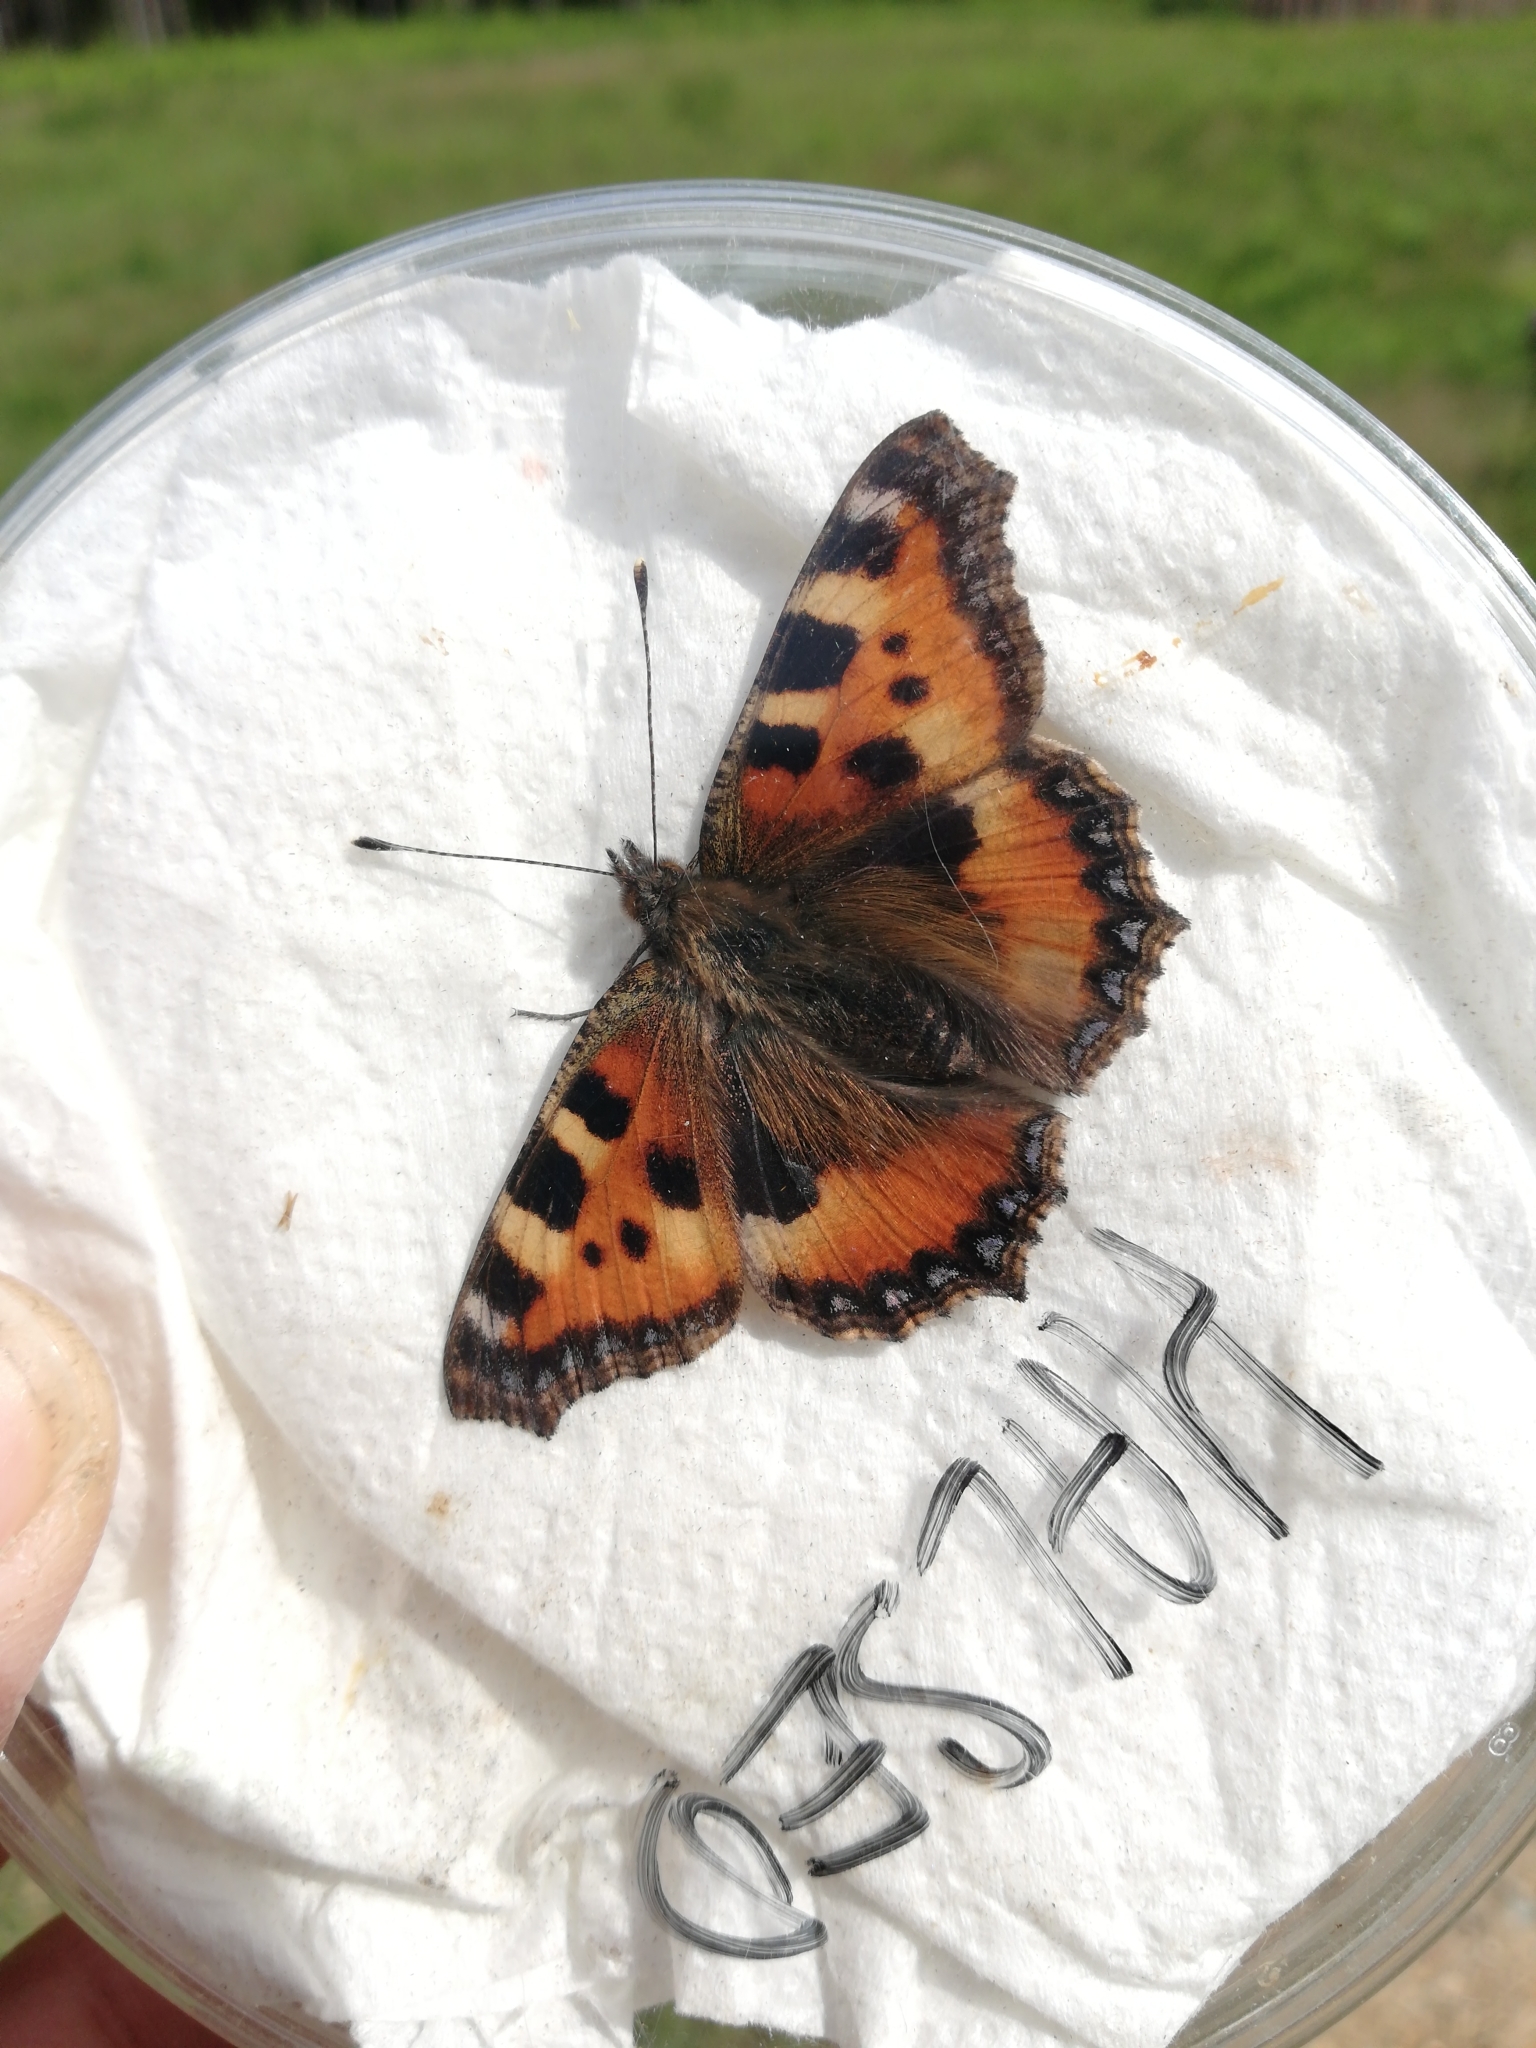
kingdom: Animalia
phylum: Arthropoda
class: Insecta
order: Lepidoptera
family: Nymphalidae
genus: Aglais
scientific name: Aglais urticae
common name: Small tortoiseshell
